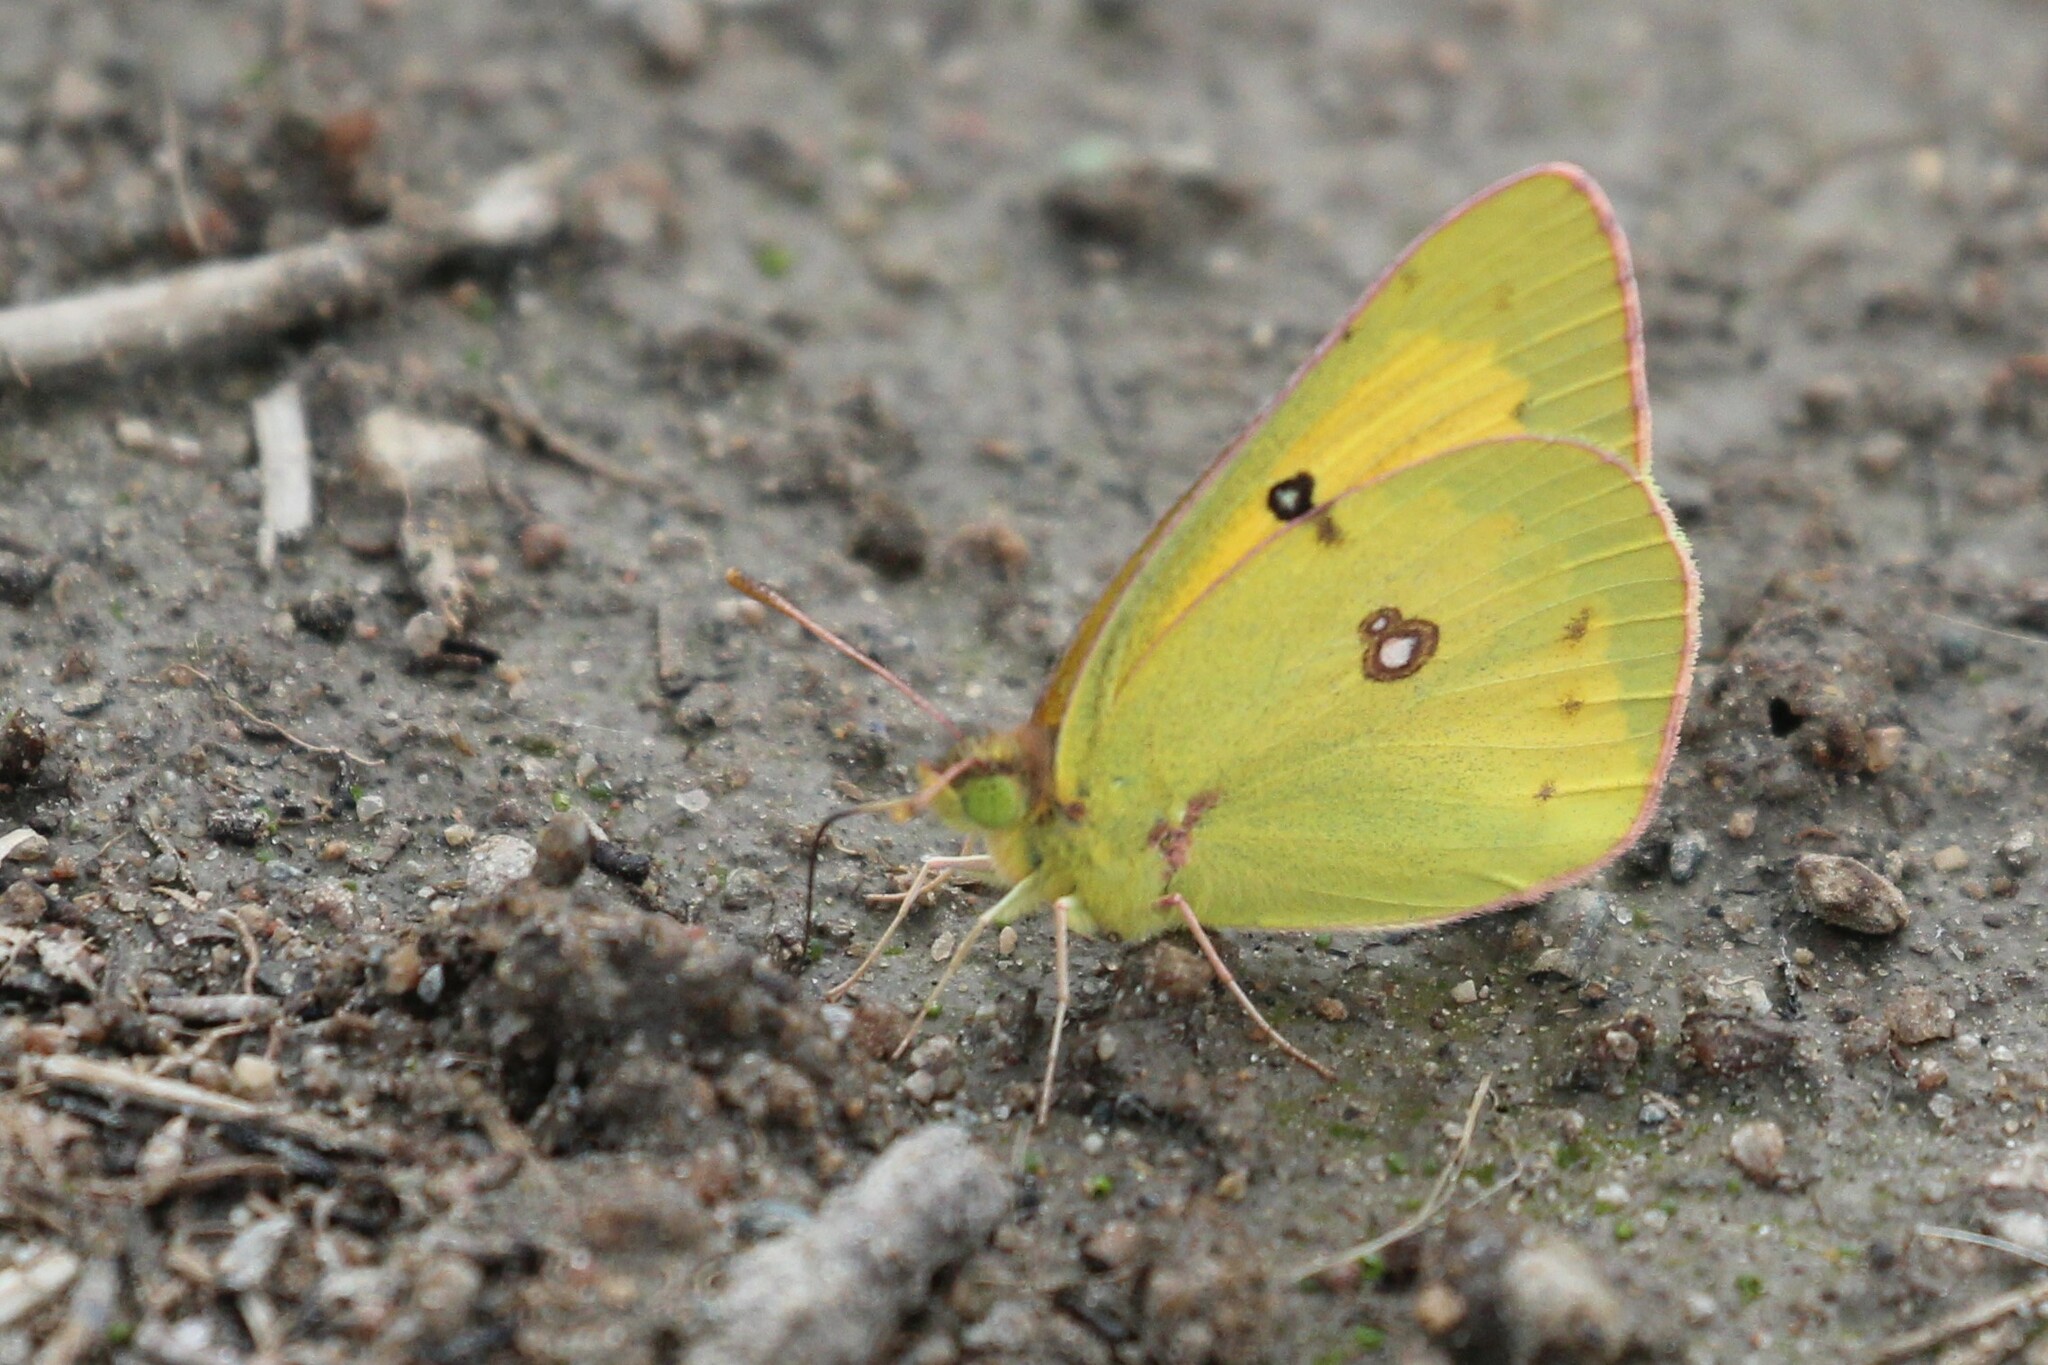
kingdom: Animalia
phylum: Arthropoda
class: Insecta
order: Lepidoptera
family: Pieridae
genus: Colias
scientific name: Colias eurytheme
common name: Alfalfa butterfly
